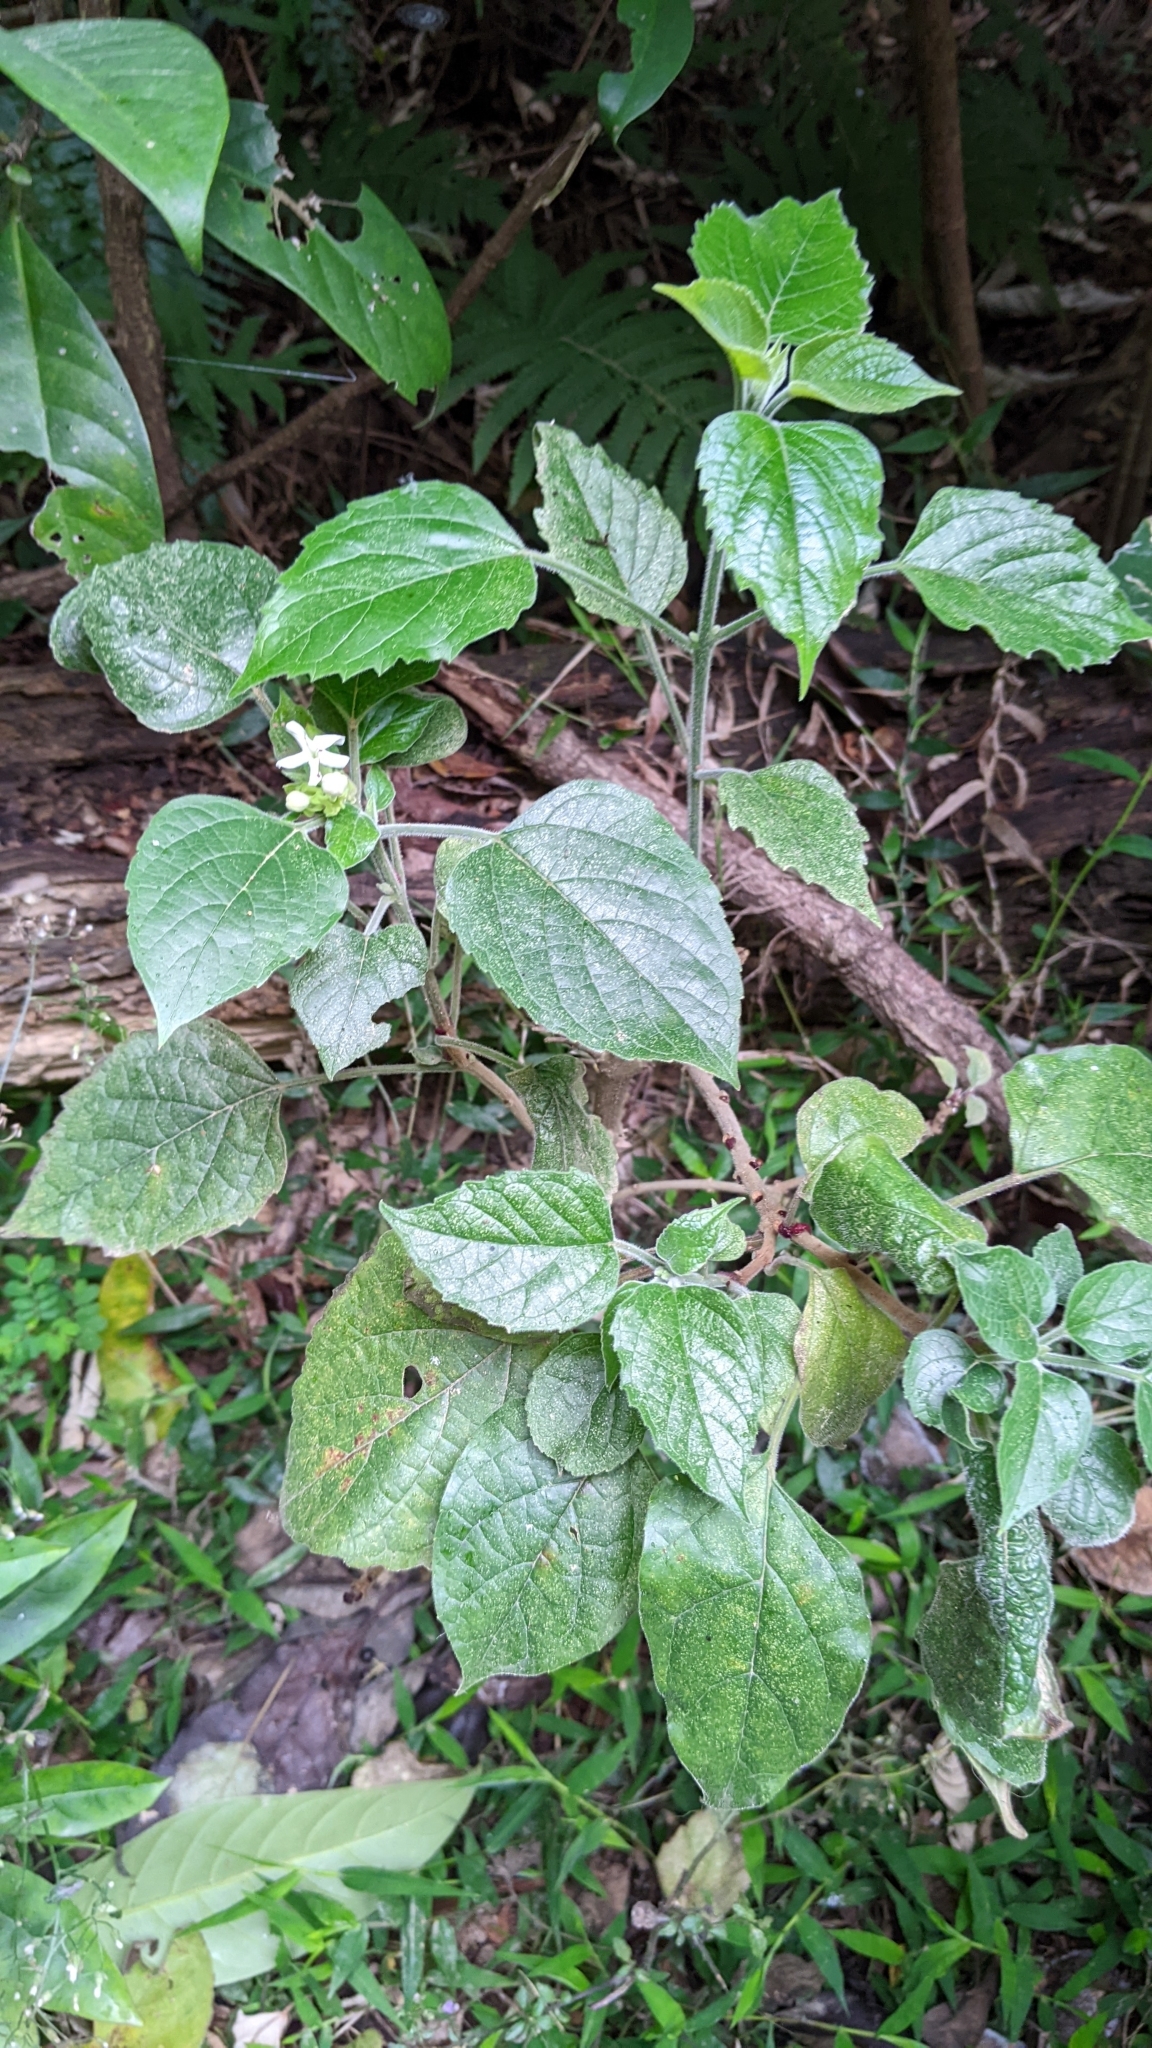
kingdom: Plantae
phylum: Tracheophyta
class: Magnoliopsida
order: Lamiales
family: Lamiaceae
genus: Clerodendrum
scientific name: Clerodendrum canescens
